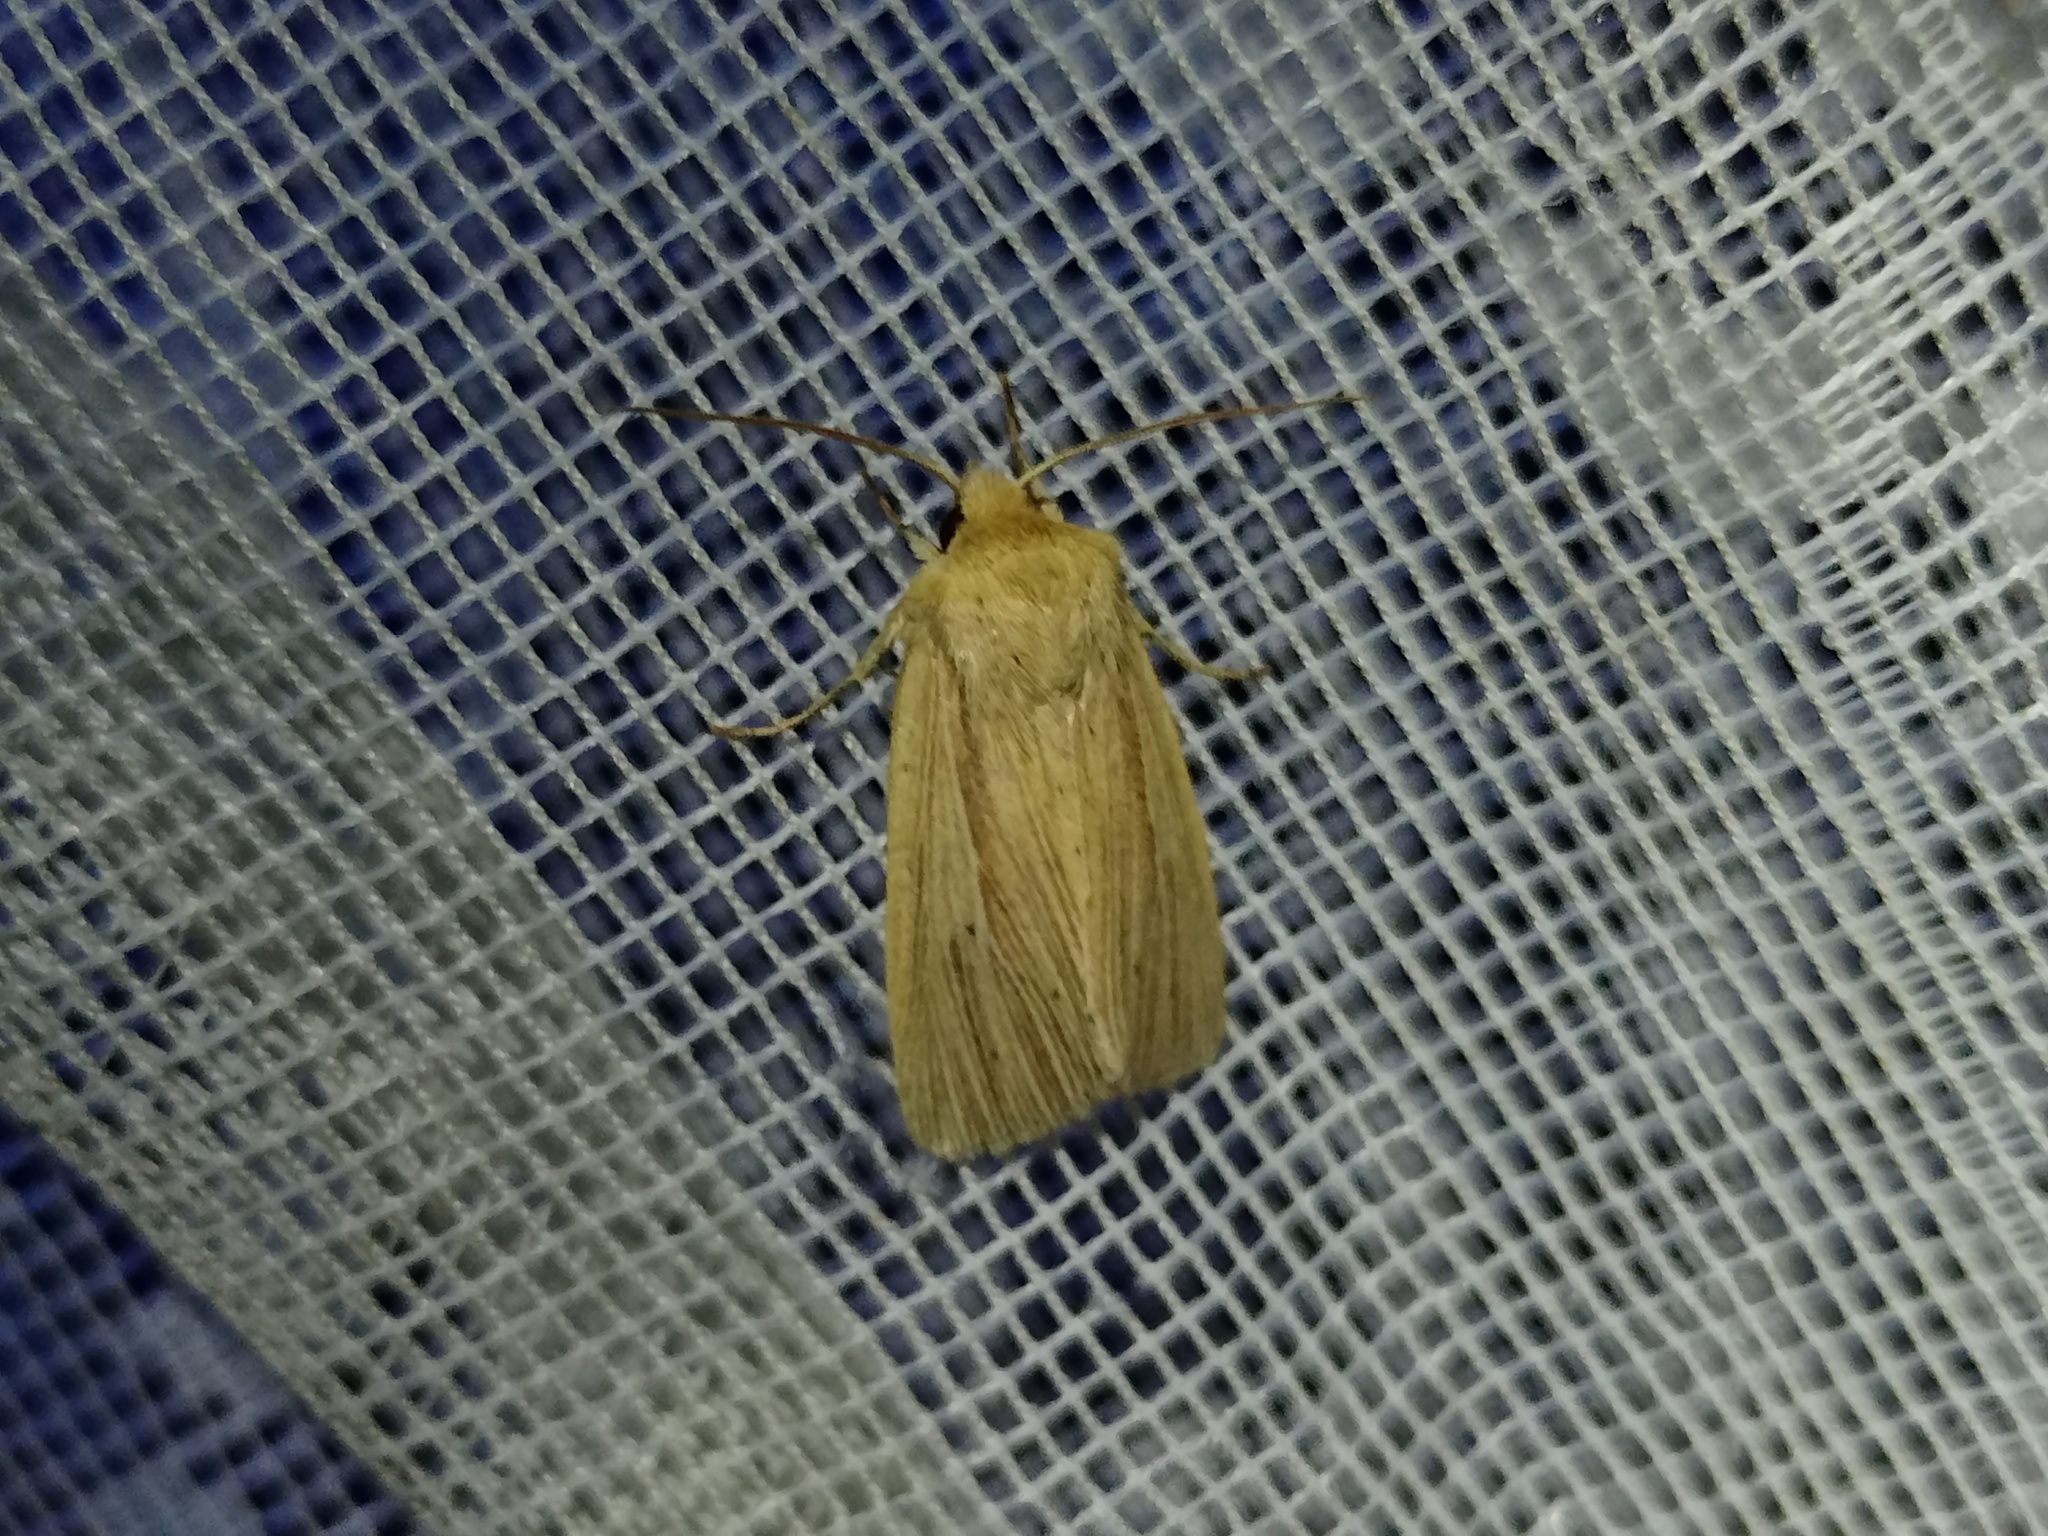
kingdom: Animalia
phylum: Arthropoda
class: Insecta
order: Lepidoptera
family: Noctuidae
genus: Mythimna
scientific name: Mythimna impura
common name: Smoky wainscot
